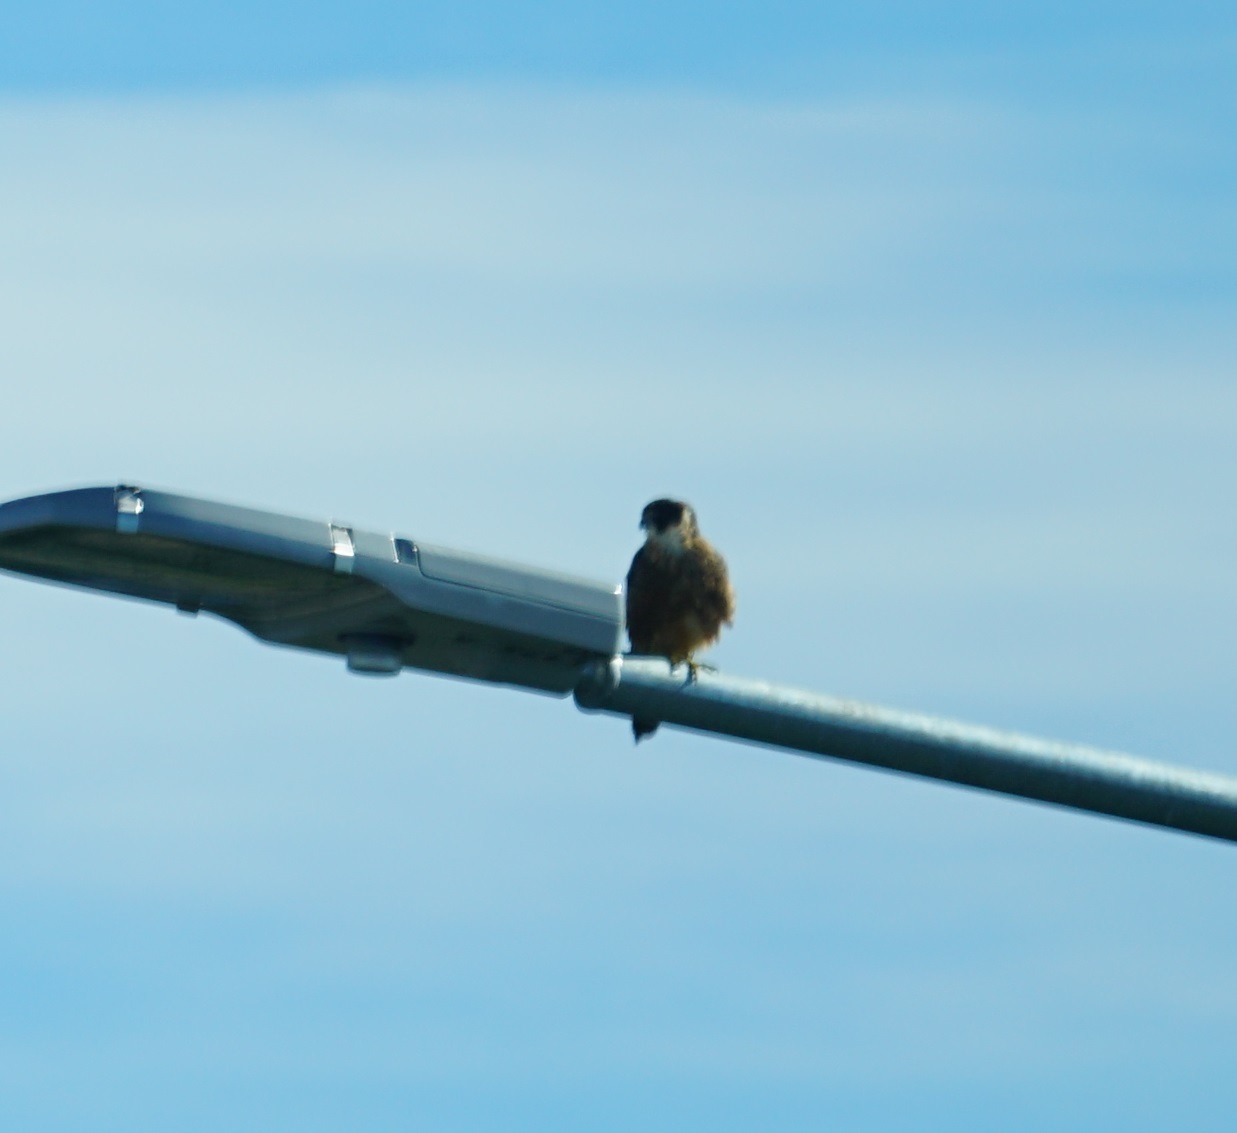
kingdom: Animalia
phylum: Chordata
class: Aves
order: Falconiformes
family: Falconidae
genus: Falco
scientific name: Falco longipennis
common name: Australian hobby
